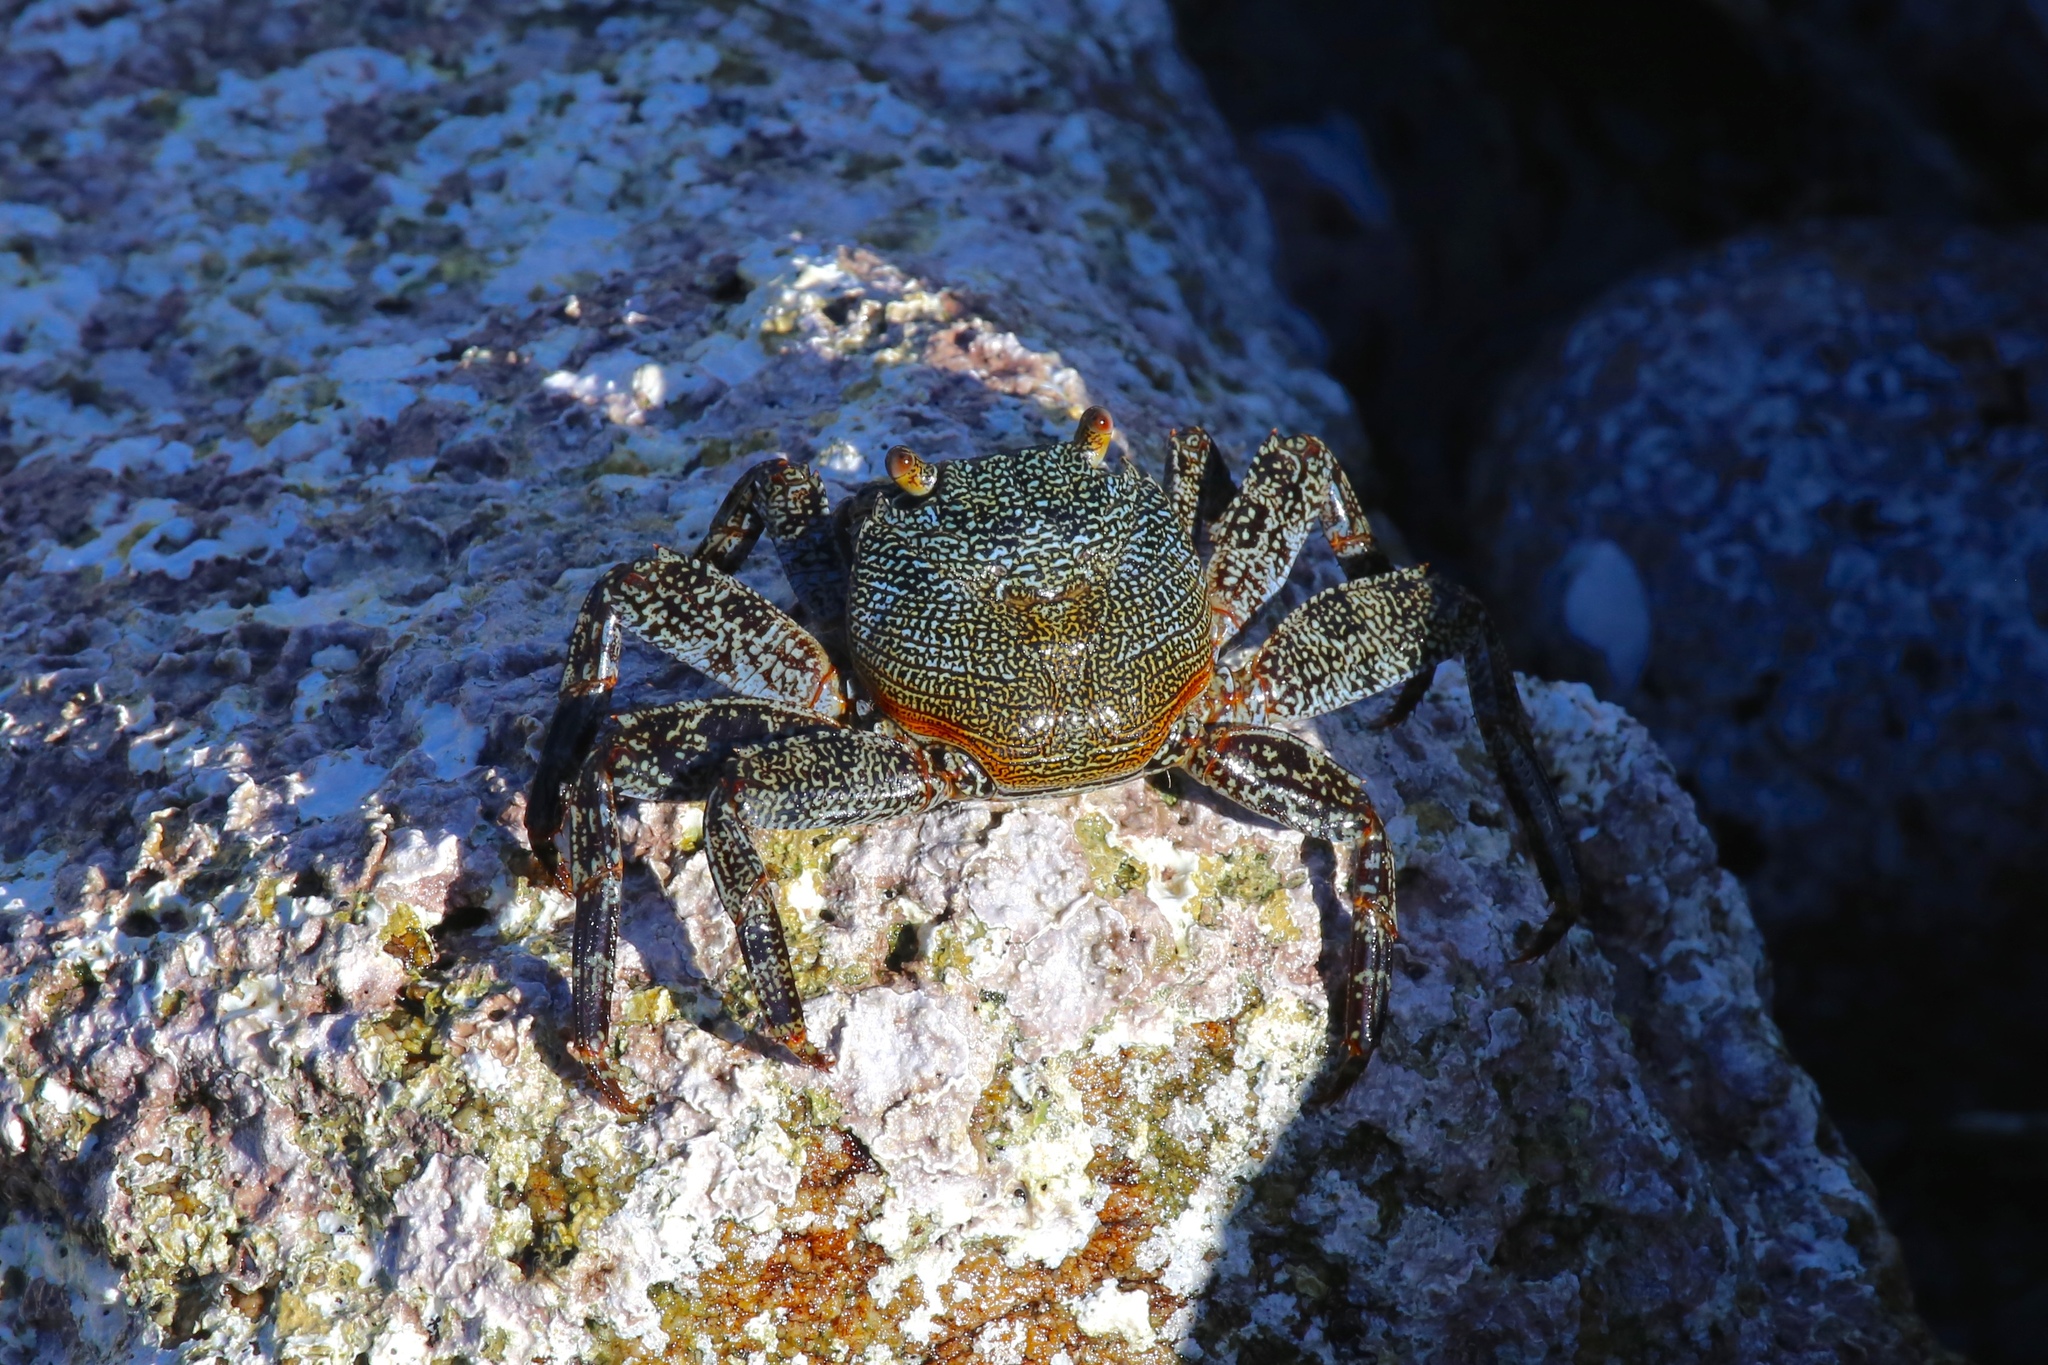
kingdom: Animalia
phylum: Arthropoda
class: Malacostraca
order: Decapoda
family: Grapsidae
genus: Grapsus
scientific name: Grapsus grapsus
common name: Sally lightfoot
